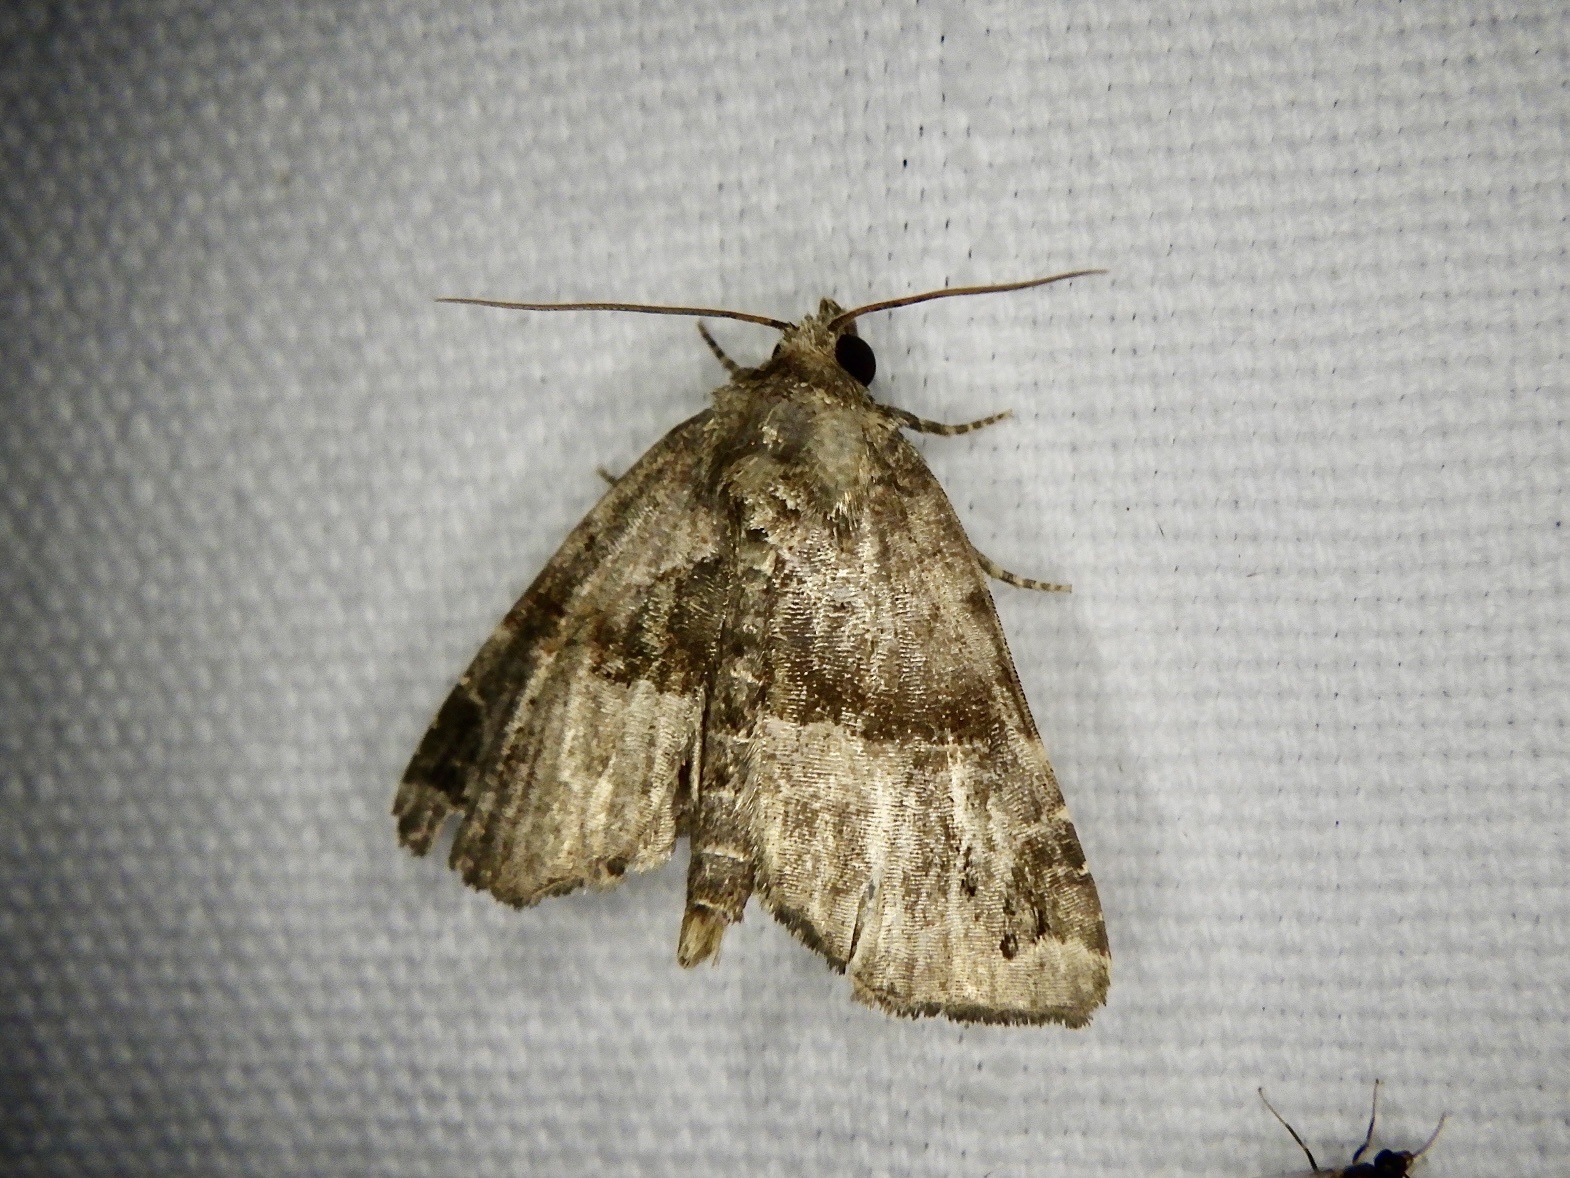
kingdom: Animalia
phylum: Arthropoda
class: Insecta
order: Lepidoptera
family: Noctuidae
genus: Niphonyx
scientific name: Niphonyx segregata
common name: Hops angleshade moth
